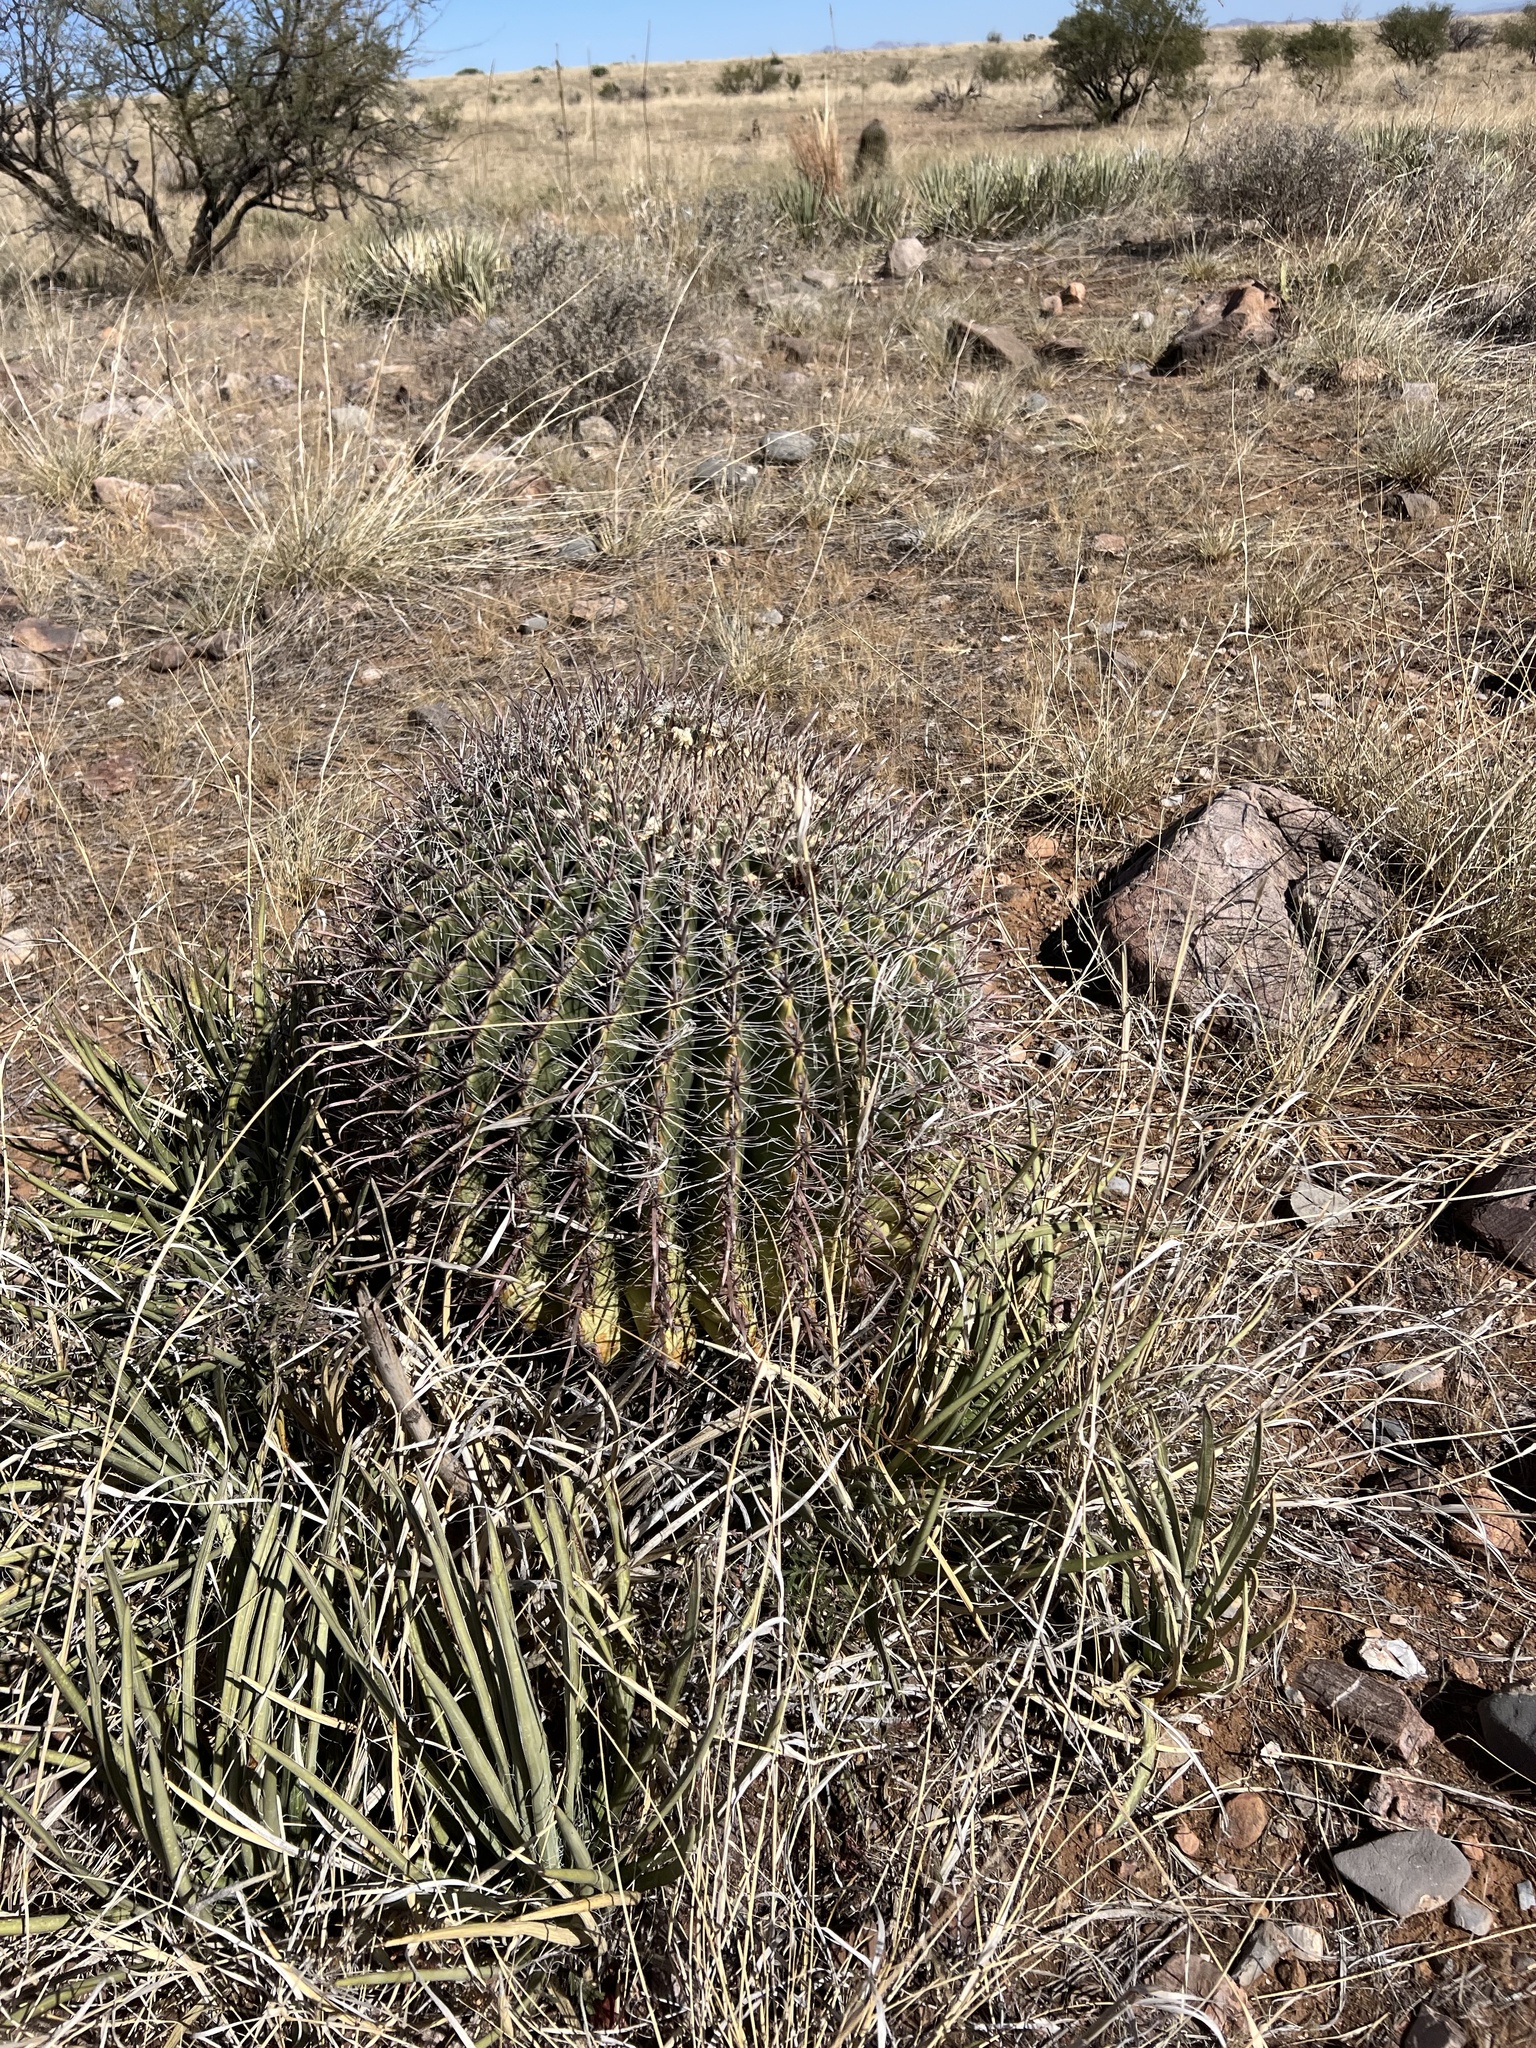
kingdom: Plantae
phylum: Tracheophyta
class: Magnoliopsida
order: Caryophyllales
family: Cactaceae
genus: Ferocactus
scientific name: Ferocactus wislizeni
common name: Candy barrel cactus
